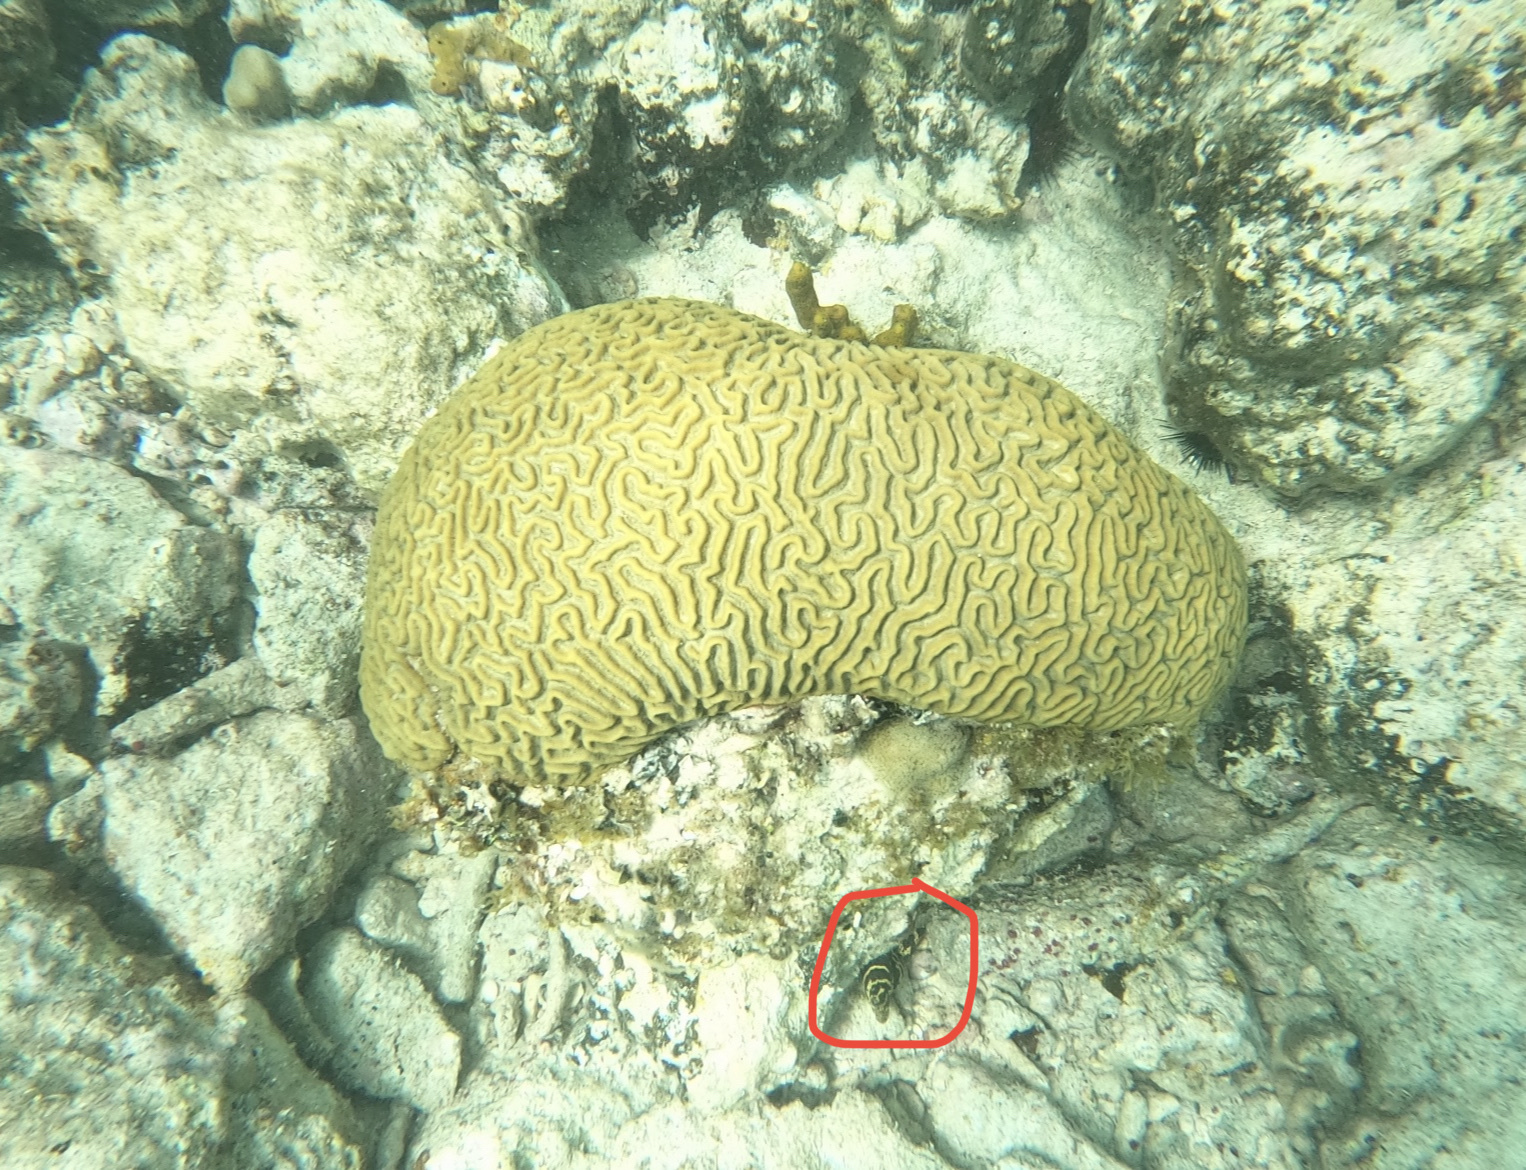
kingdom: Animalia
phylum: Chordata
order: Anguilliformes
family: Muraenidae
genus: Echidna
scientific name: Echidna catenata
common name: Chain moray
